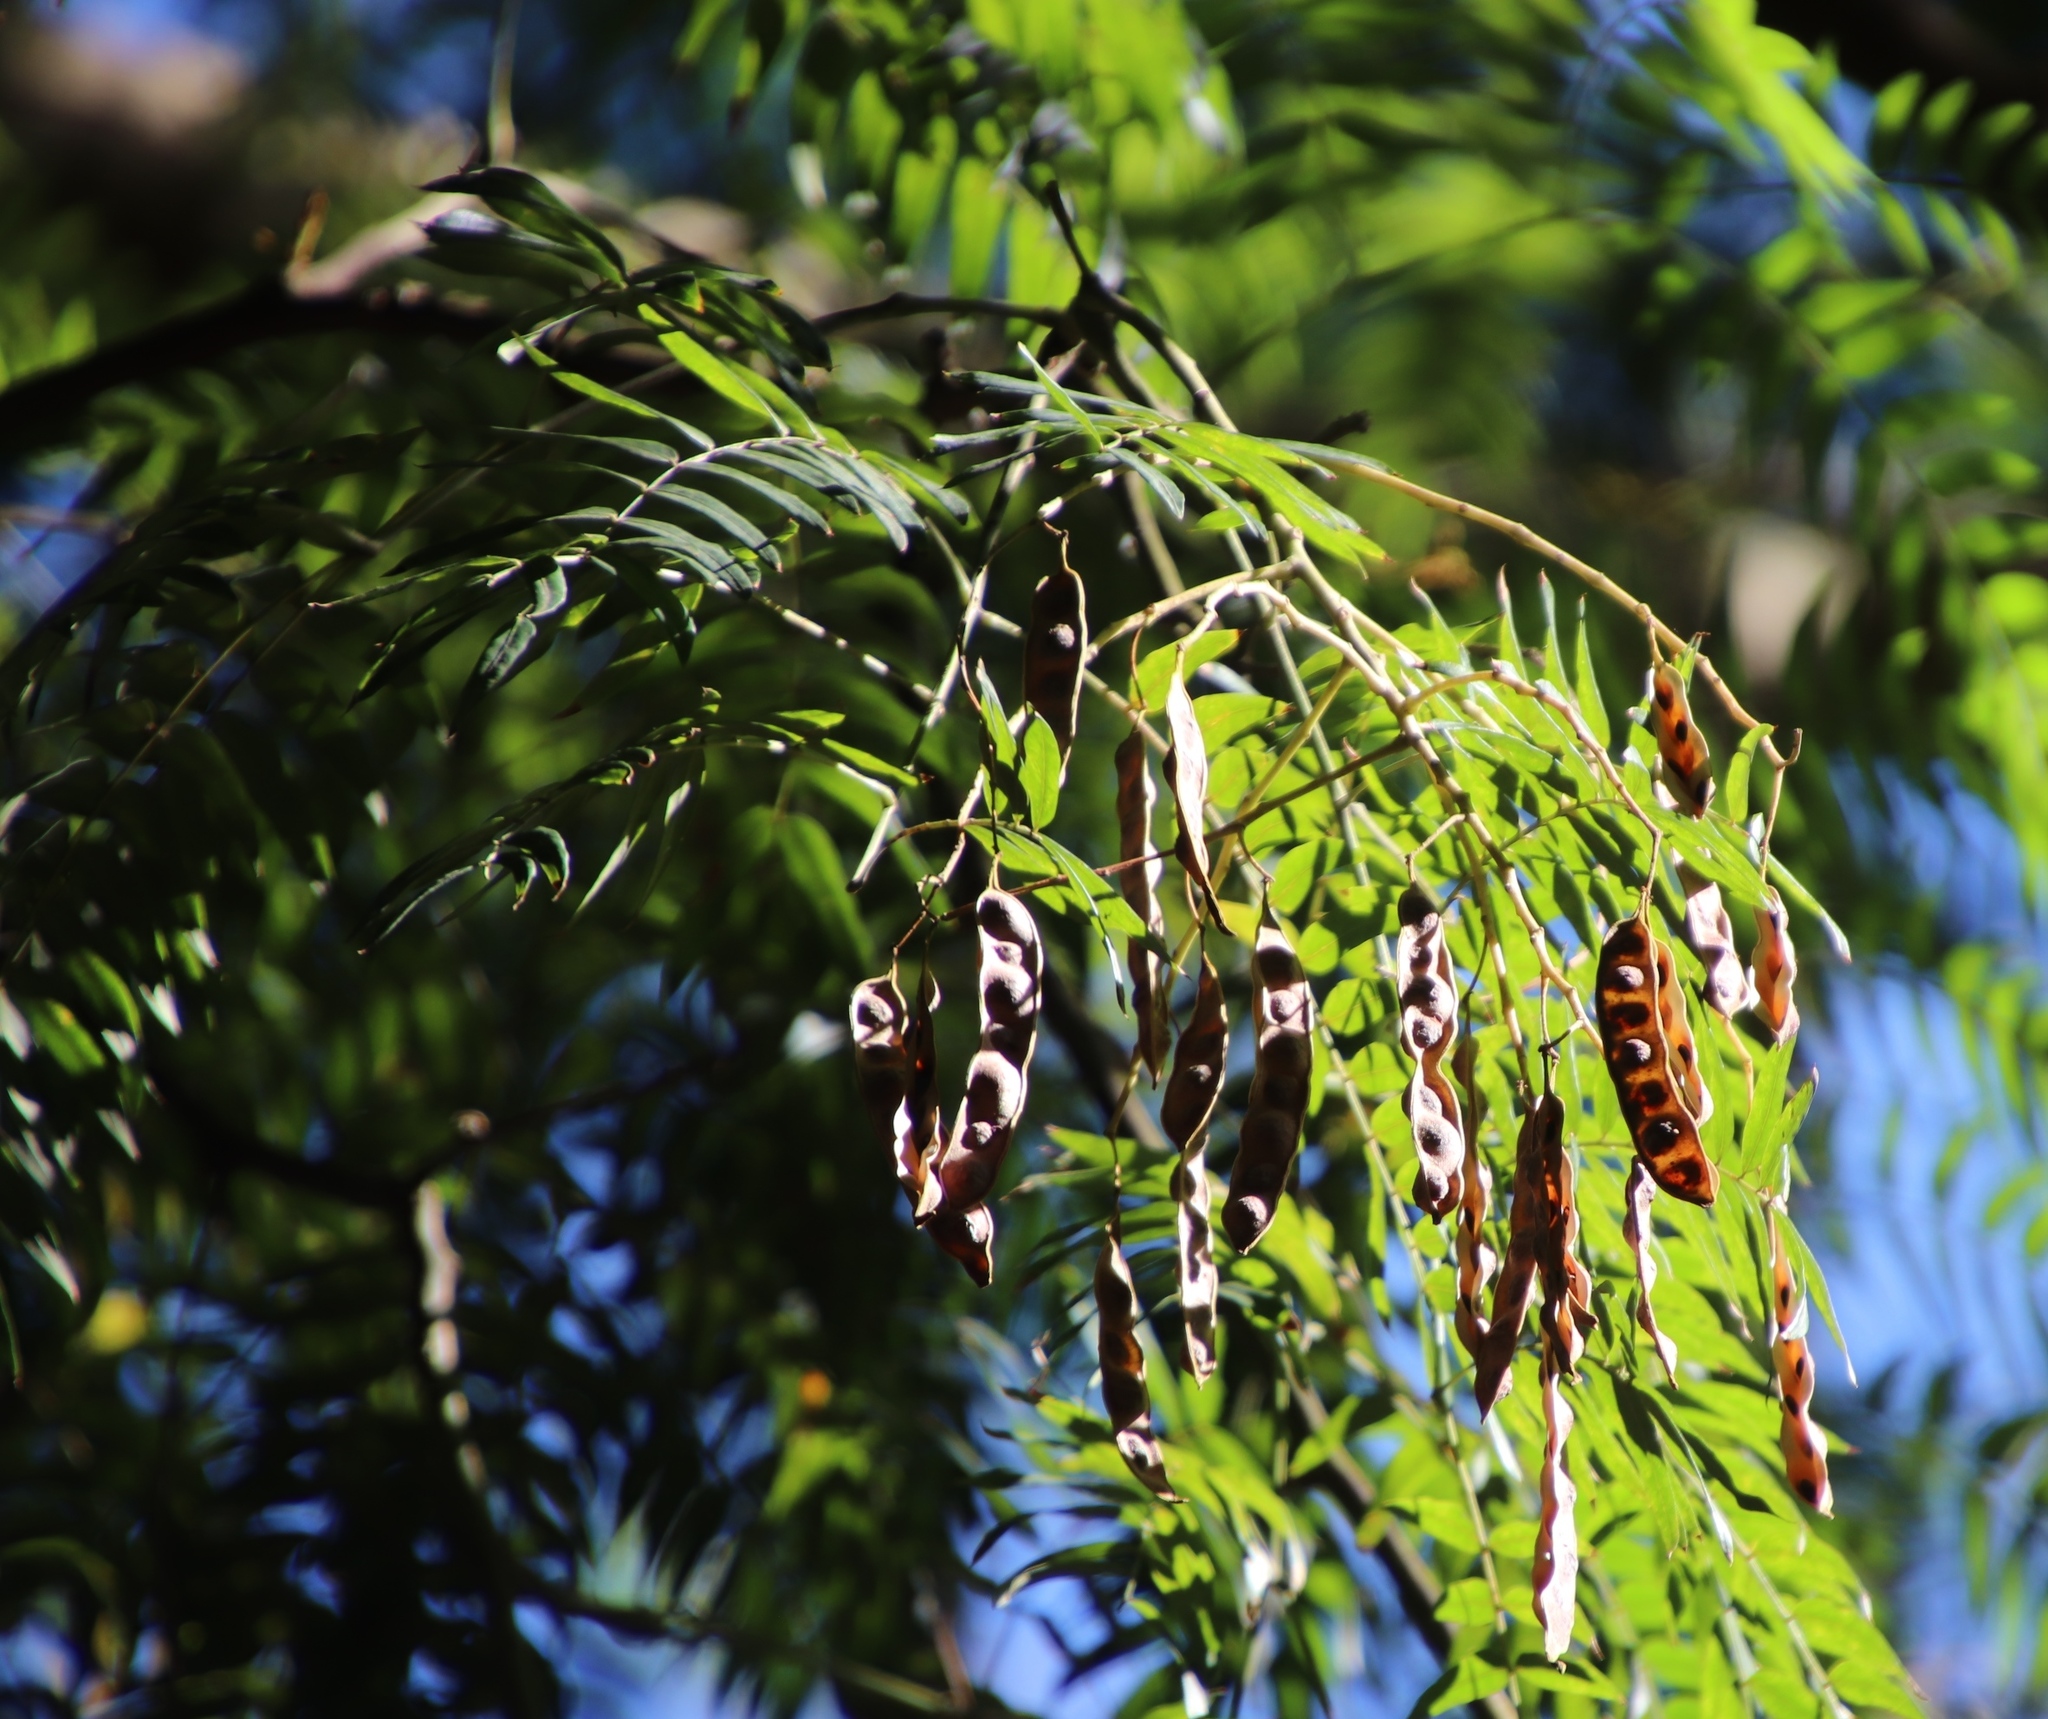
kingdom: Plantae
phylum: Tracheophyta
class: Magnoliopsida
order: Fabales
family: Fabaceae
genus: Acacia
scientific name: Acacia elata
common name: Cedar wattle
